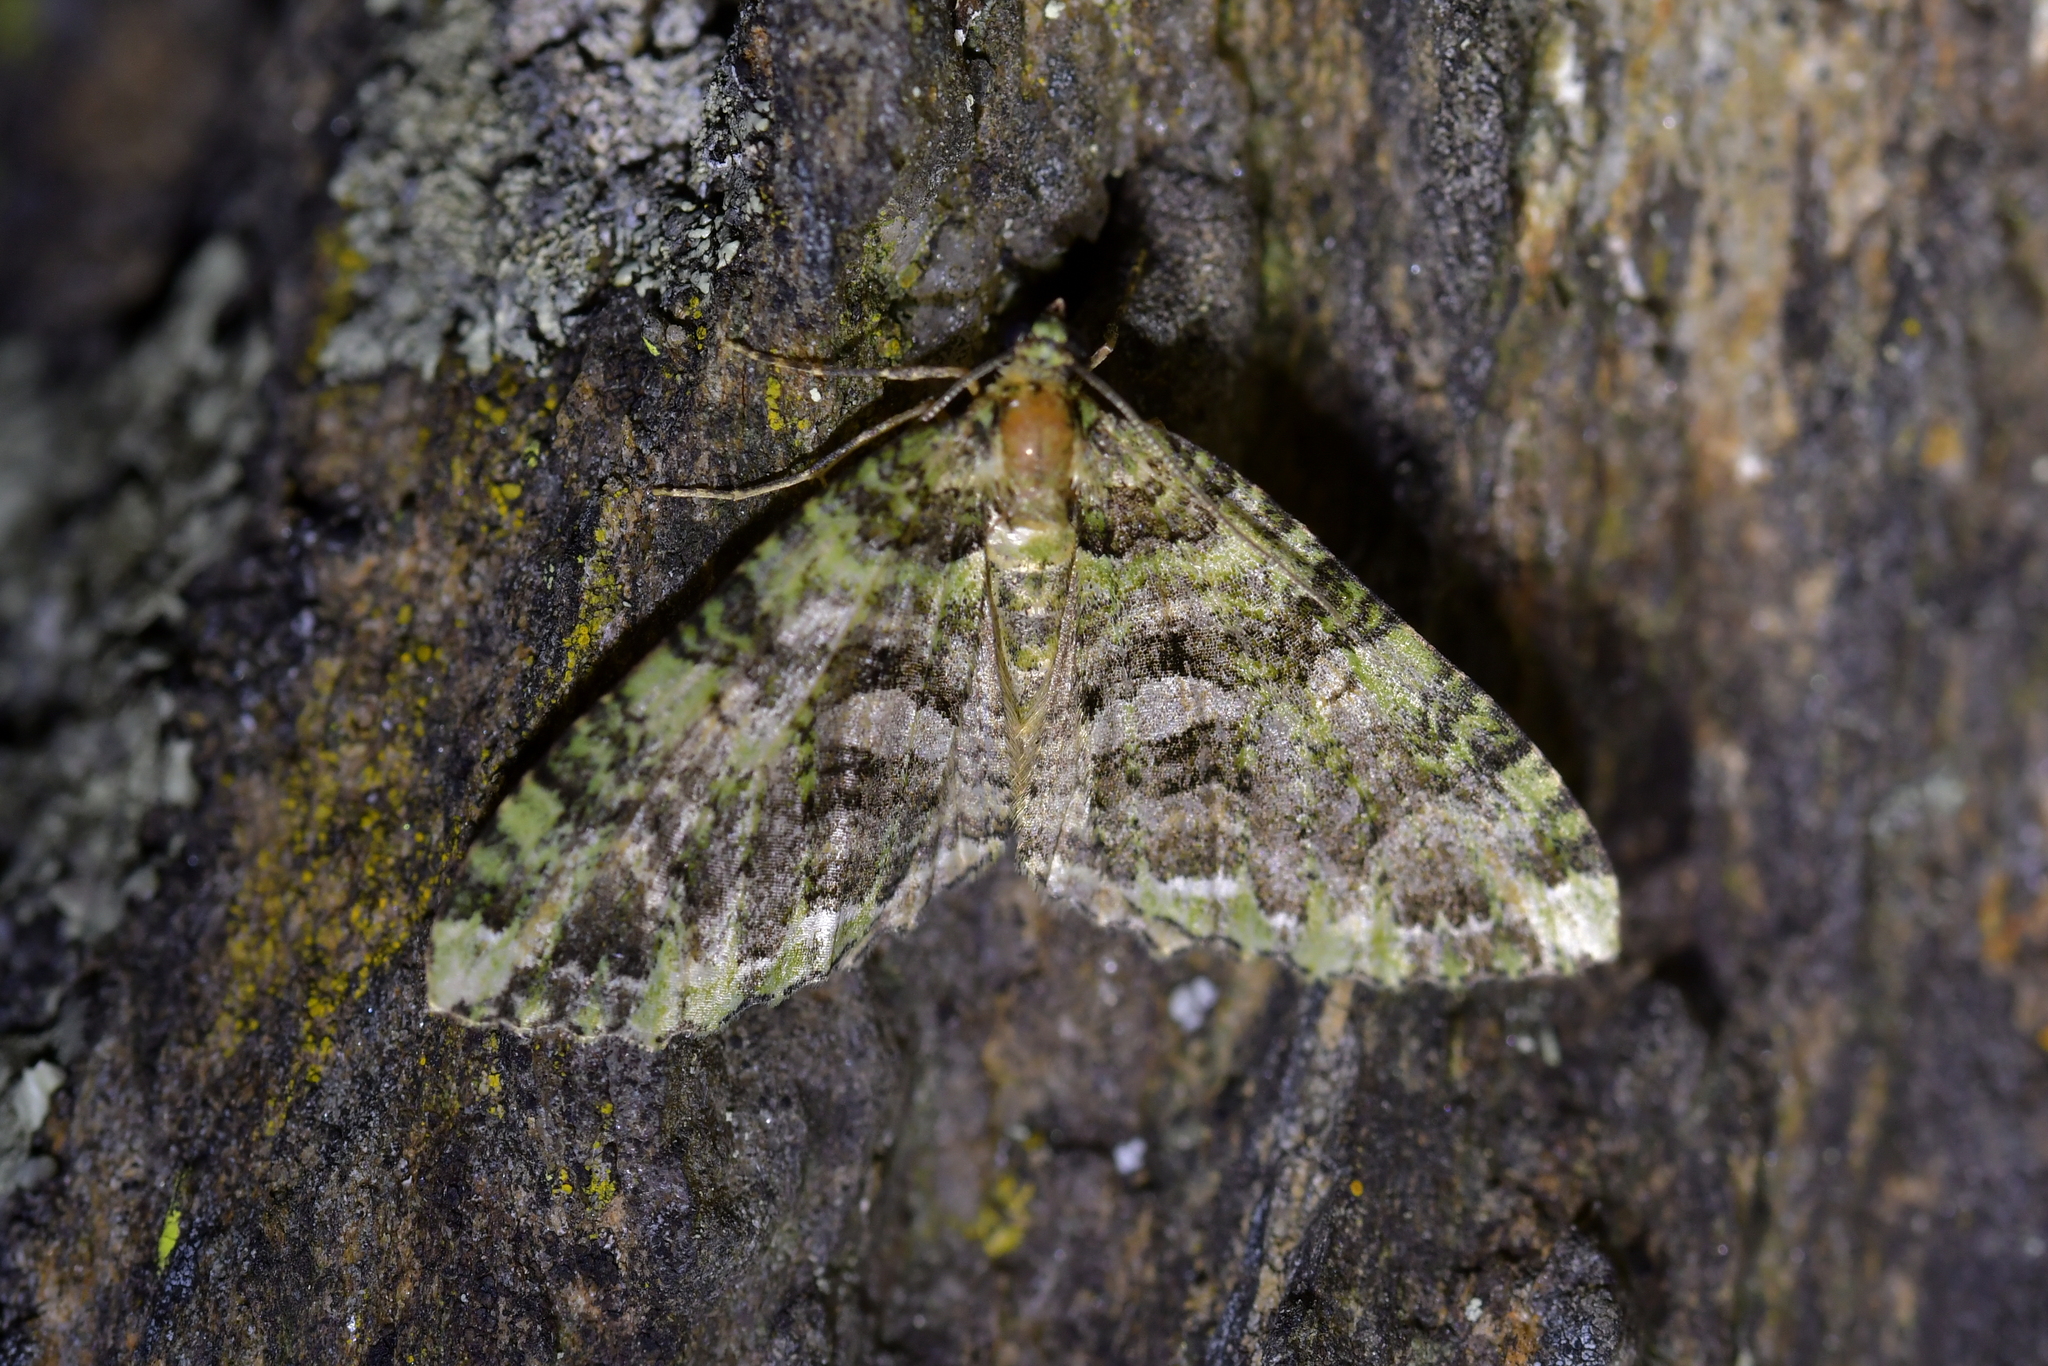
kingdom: Animalia
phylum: Arthropoda
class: Insecta
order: Lepidoptera
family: Geometridae
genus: Austrocidaria
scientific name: Austrocidaria similata
